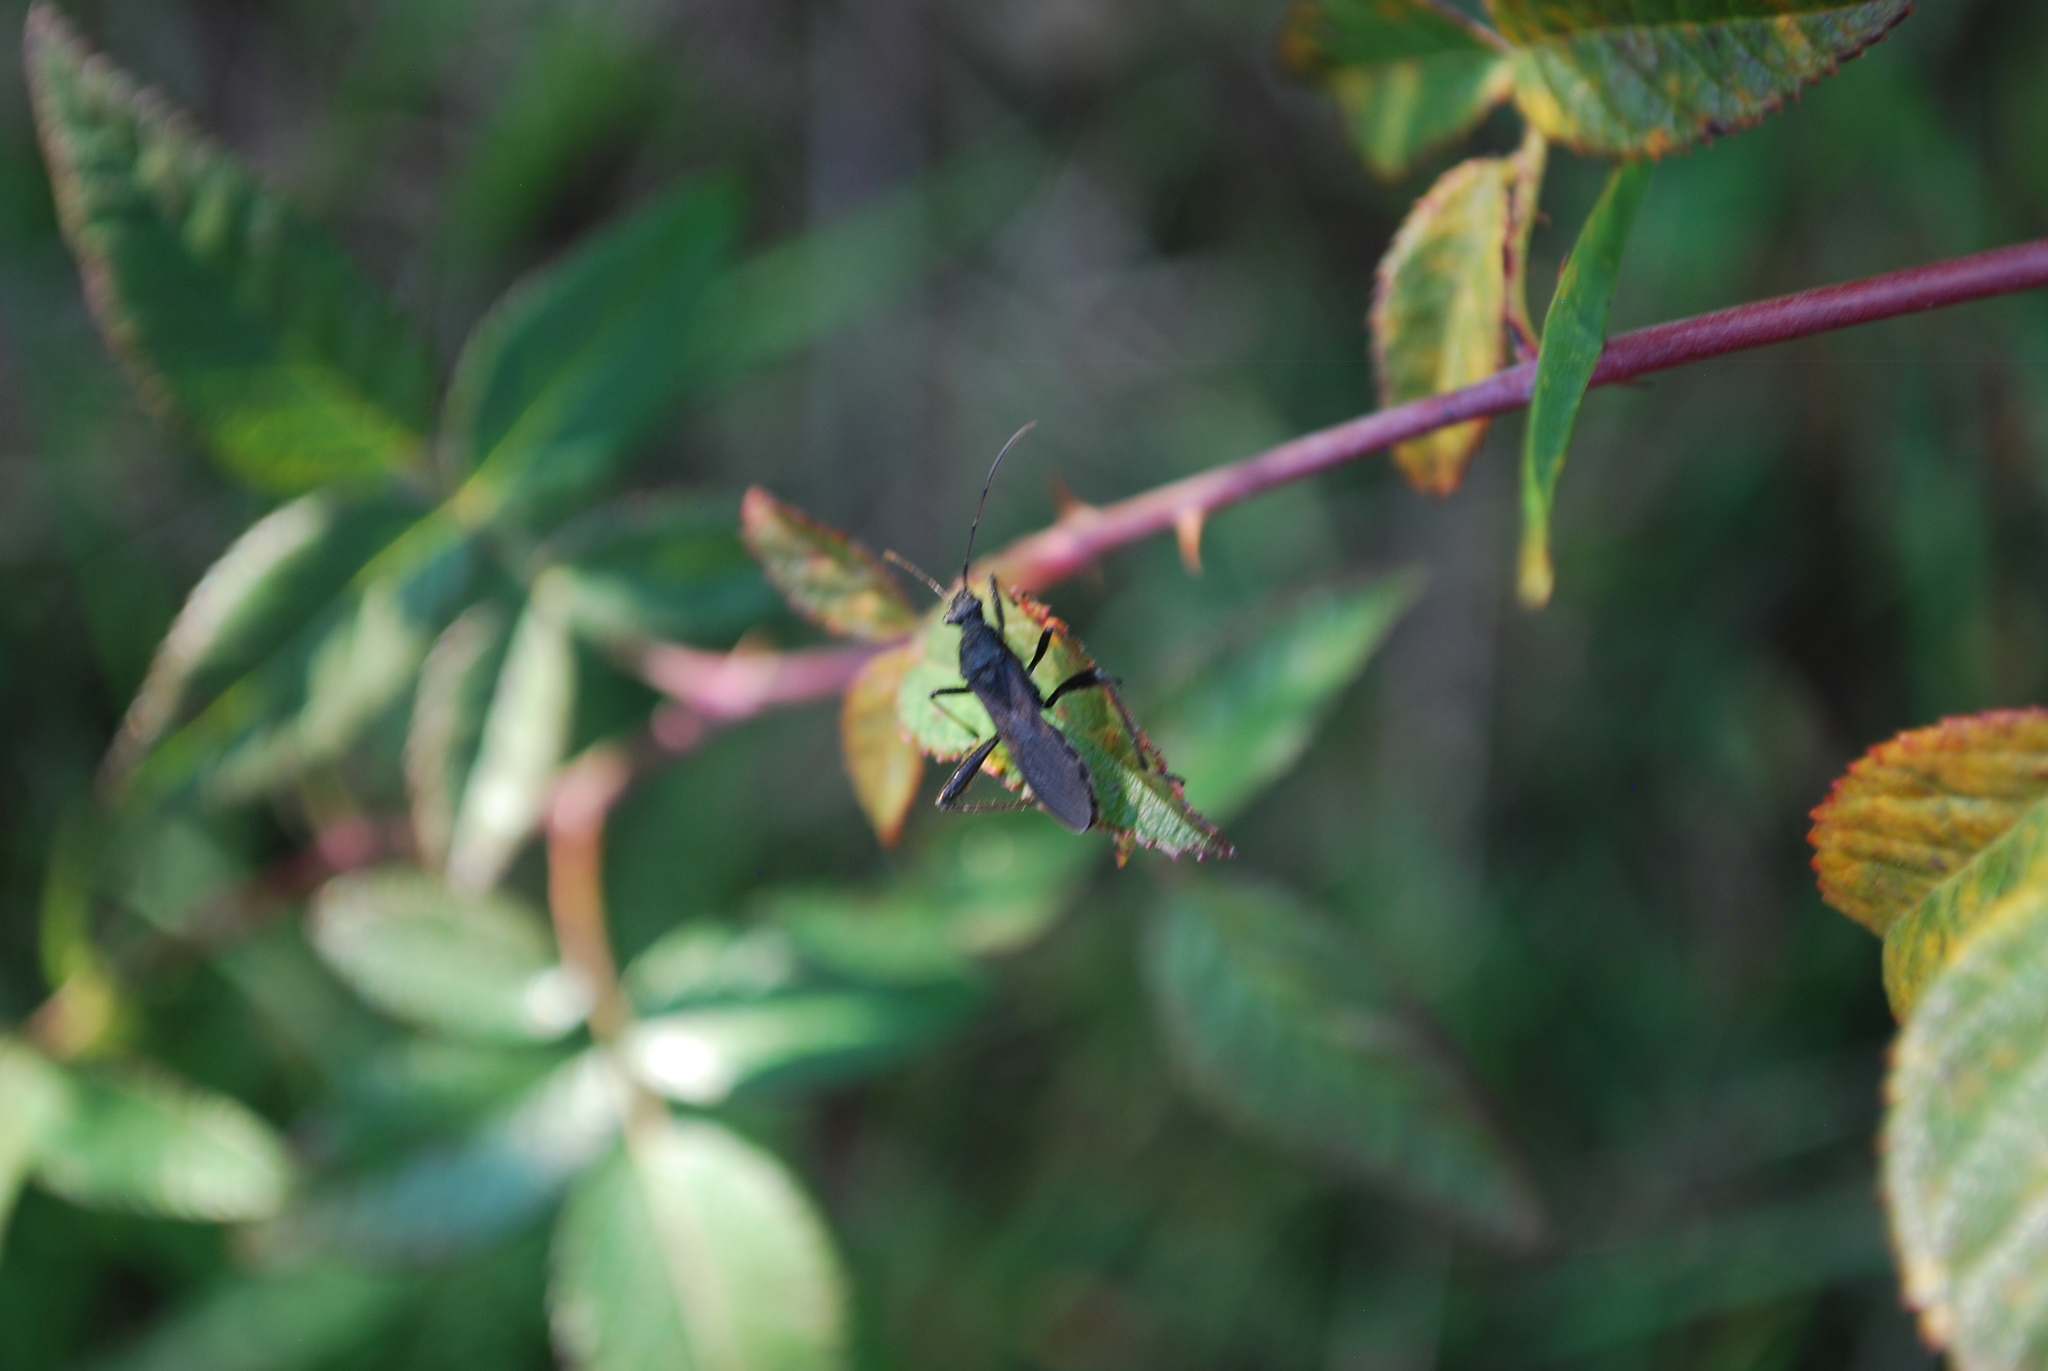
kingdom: Animalia
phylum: Arthropoda
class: Insecta
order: Hemiptera
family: Alydidae
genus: Alydus
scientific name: Alydus eurinus
